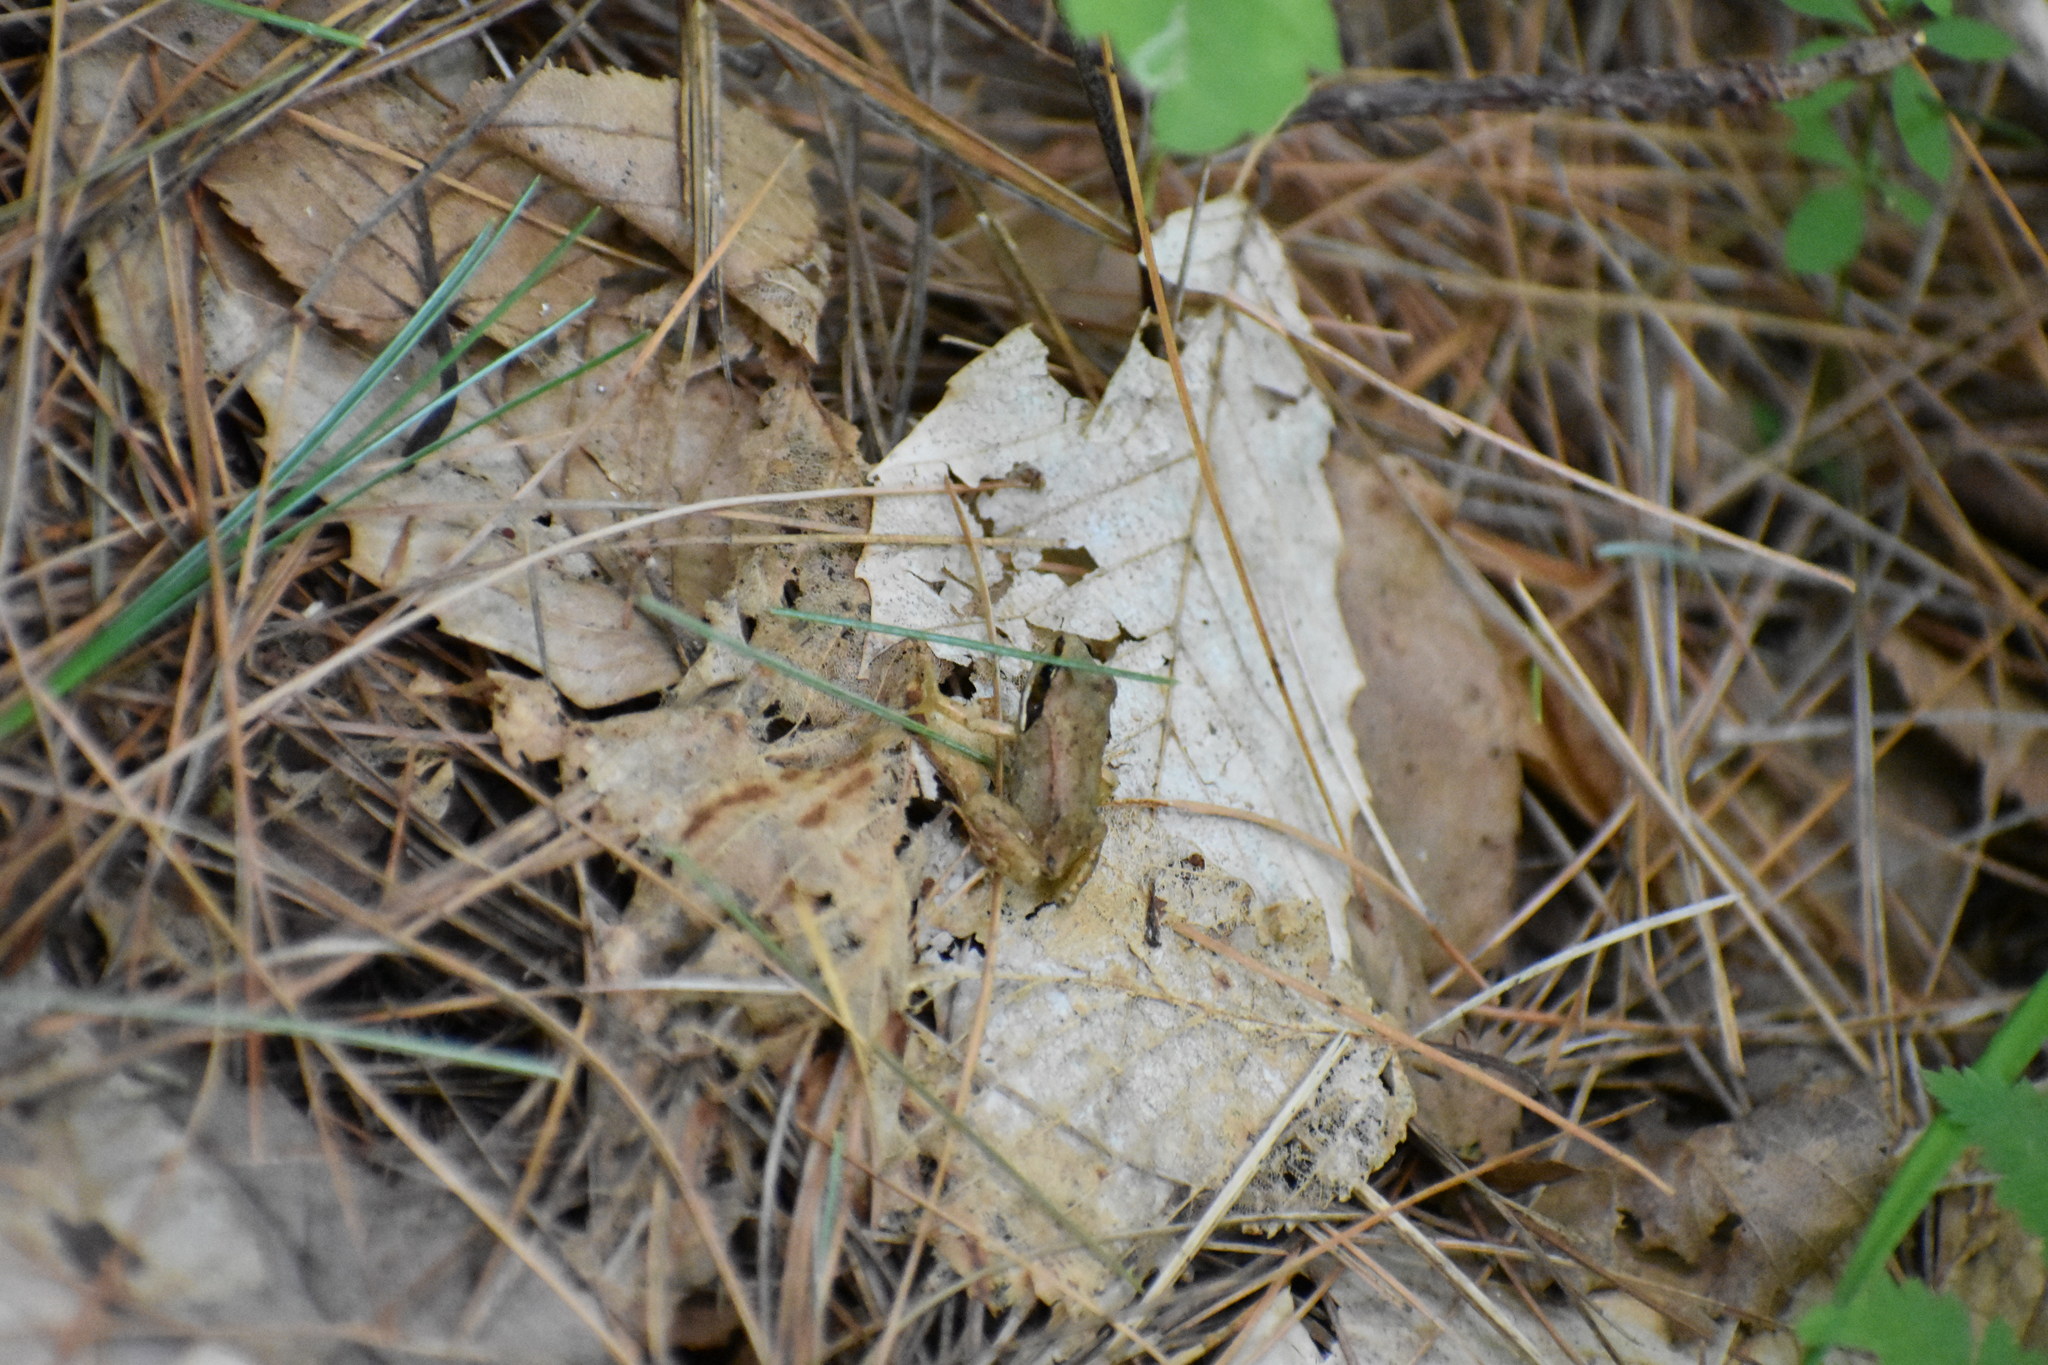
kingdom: Animalia
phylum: Chordata
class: Amphibia
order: Anura
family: Ranidae
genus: Lithobates
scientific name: Lithobates sylvaticus
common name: Wood frog
